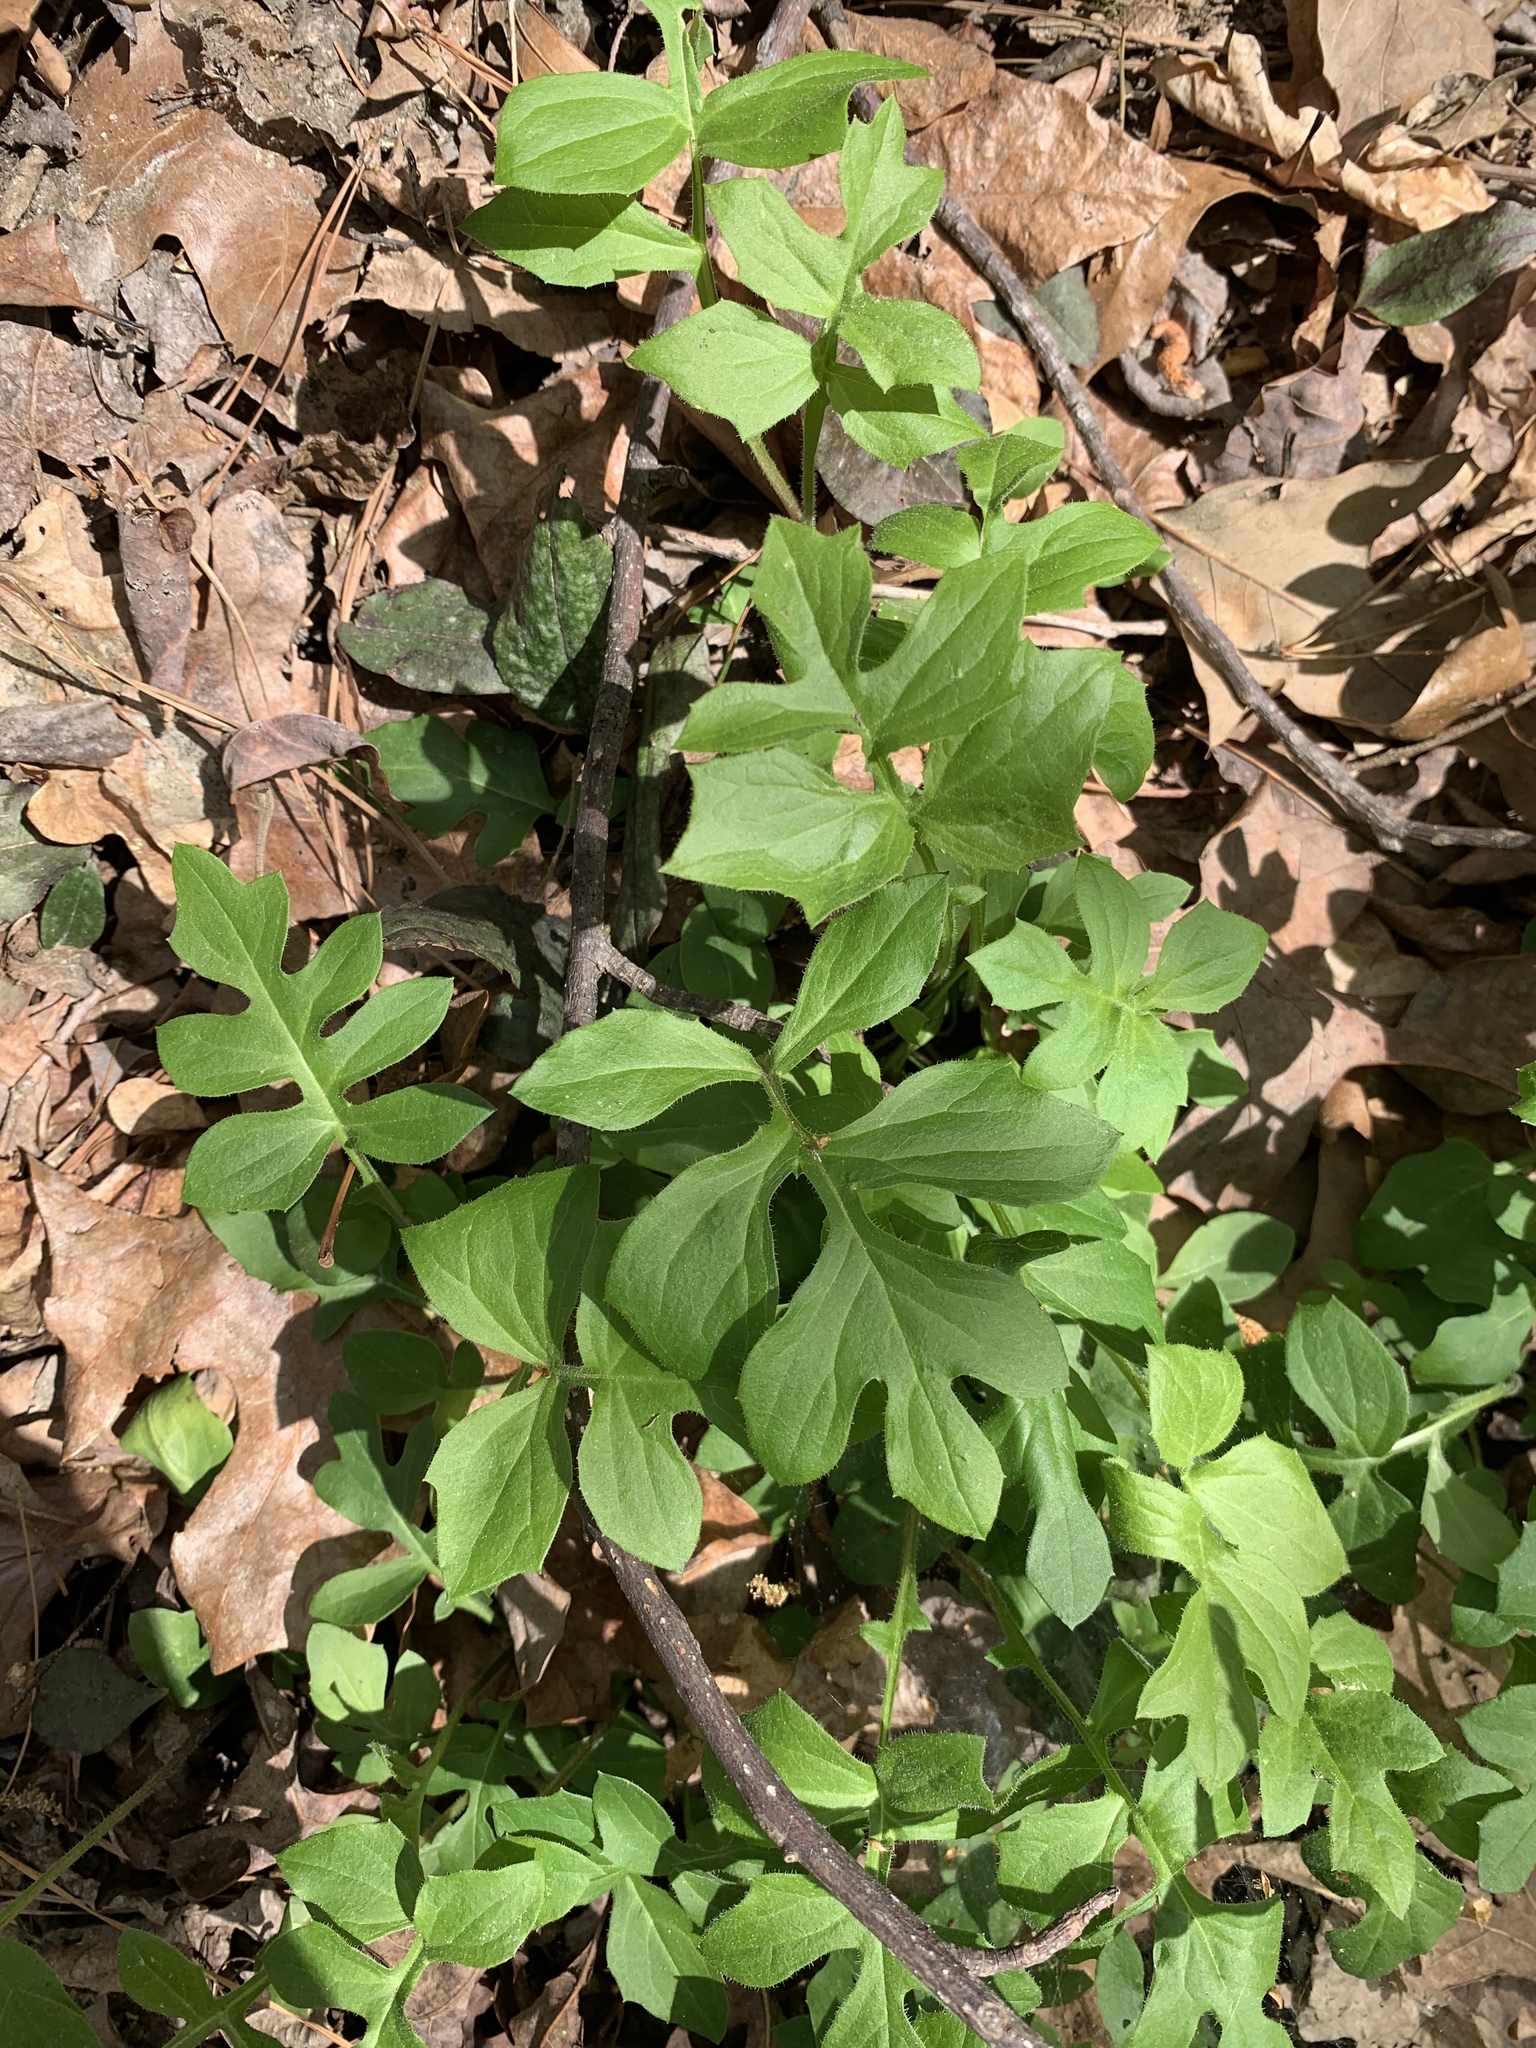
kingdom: Plantae
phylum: Tracheophyta
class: Magnoliopsida
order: Asterales
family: Asteraceae
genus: Nabalus
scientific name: Nabalus serpentarius
